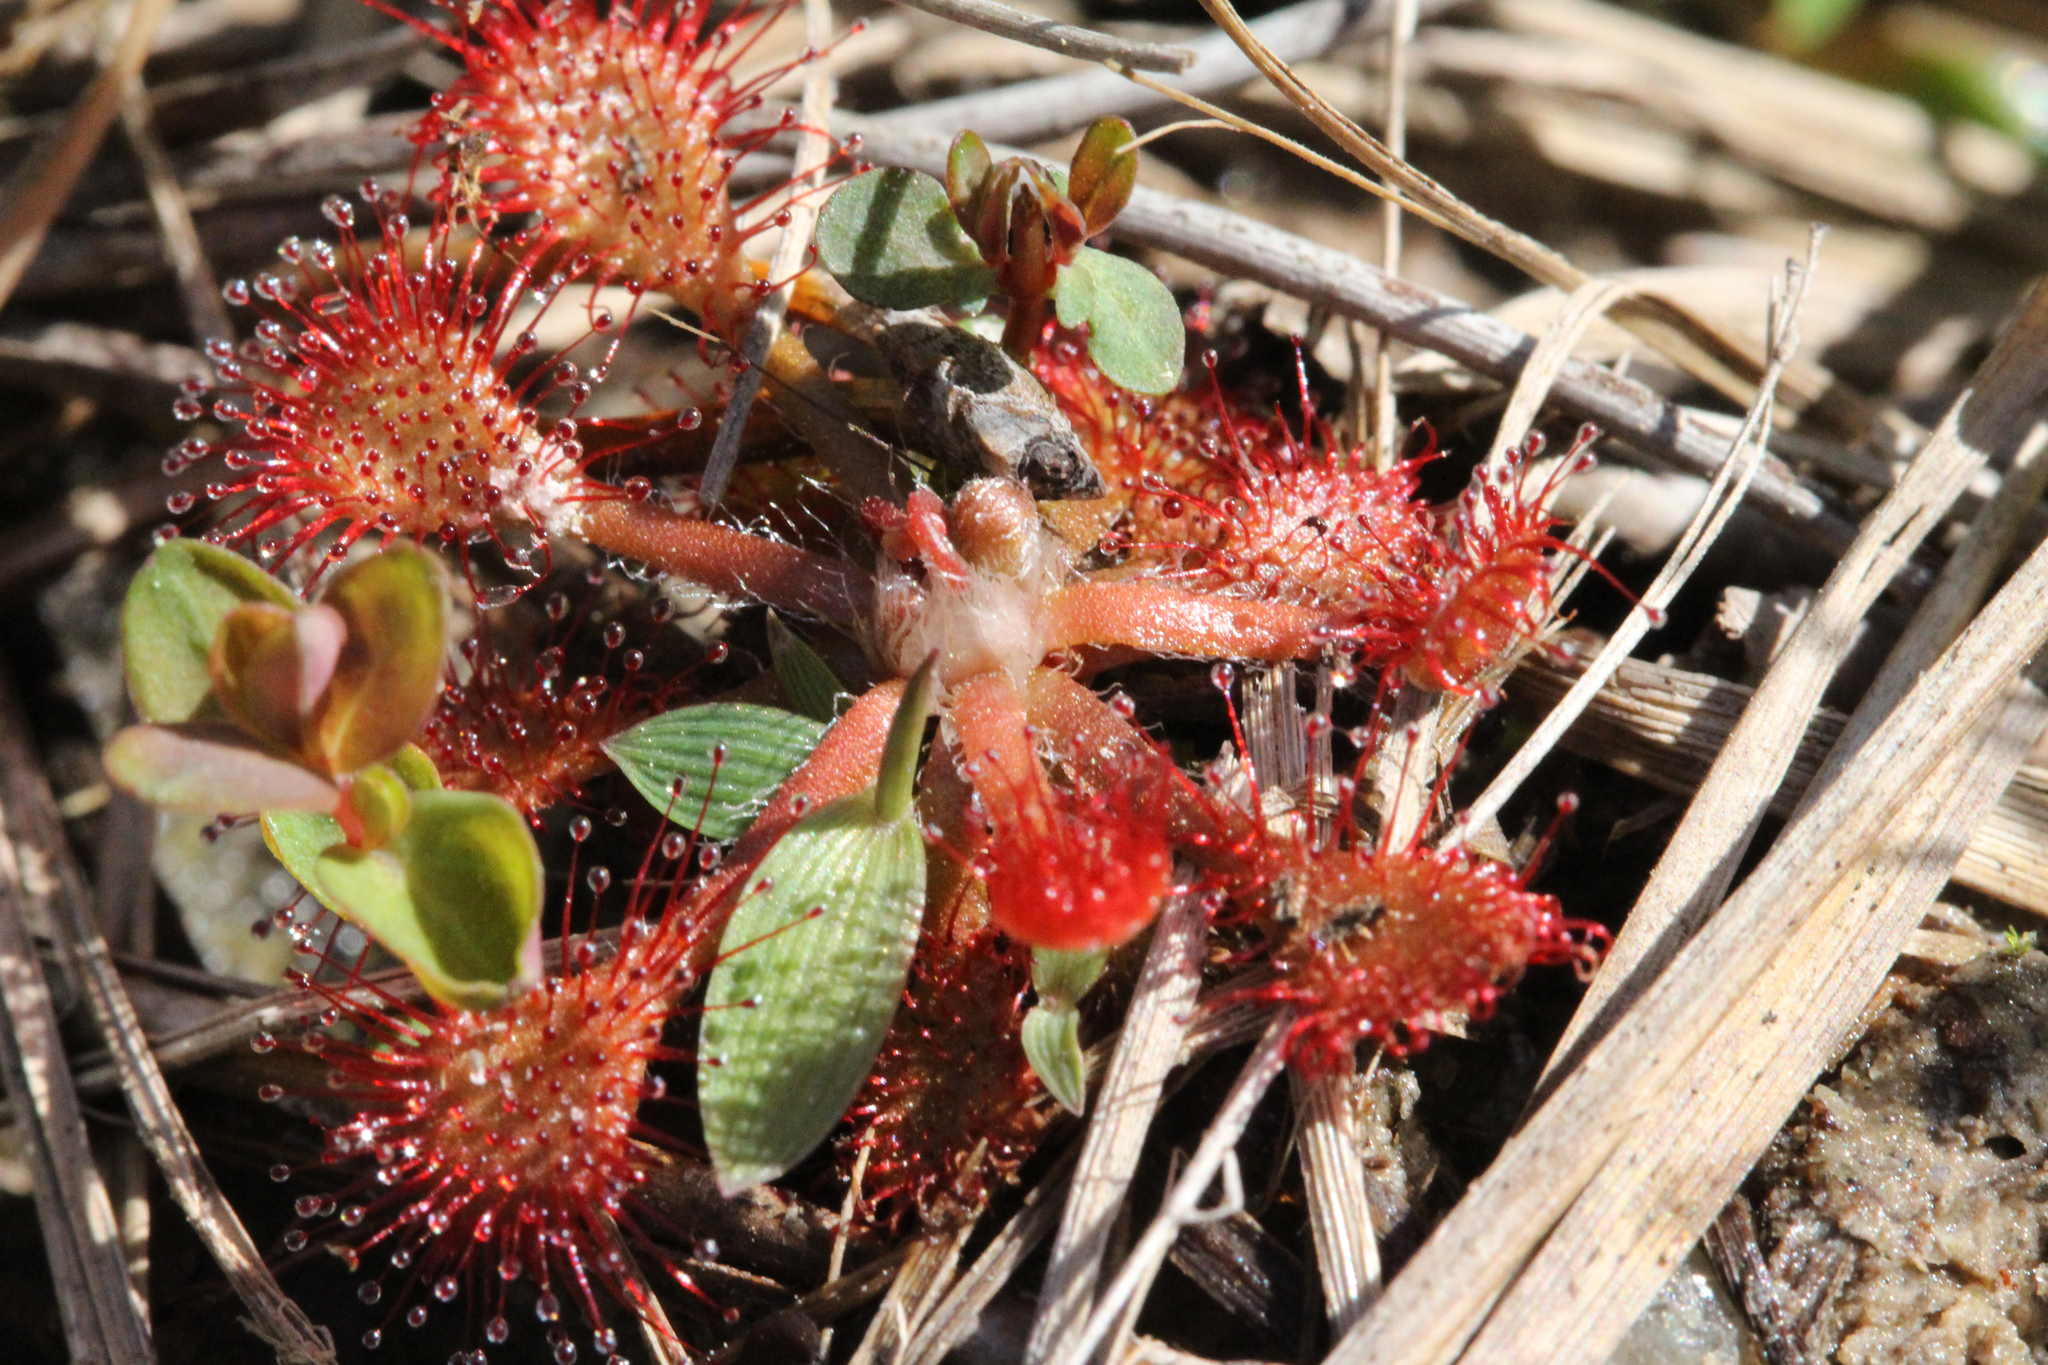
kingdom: Plantae
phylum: Tracheophyta
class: Magnoliopsida
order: Caryophyllales
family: Droseraceae
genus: Drosera
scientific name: Drosera capillaris
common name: Pink sundew
